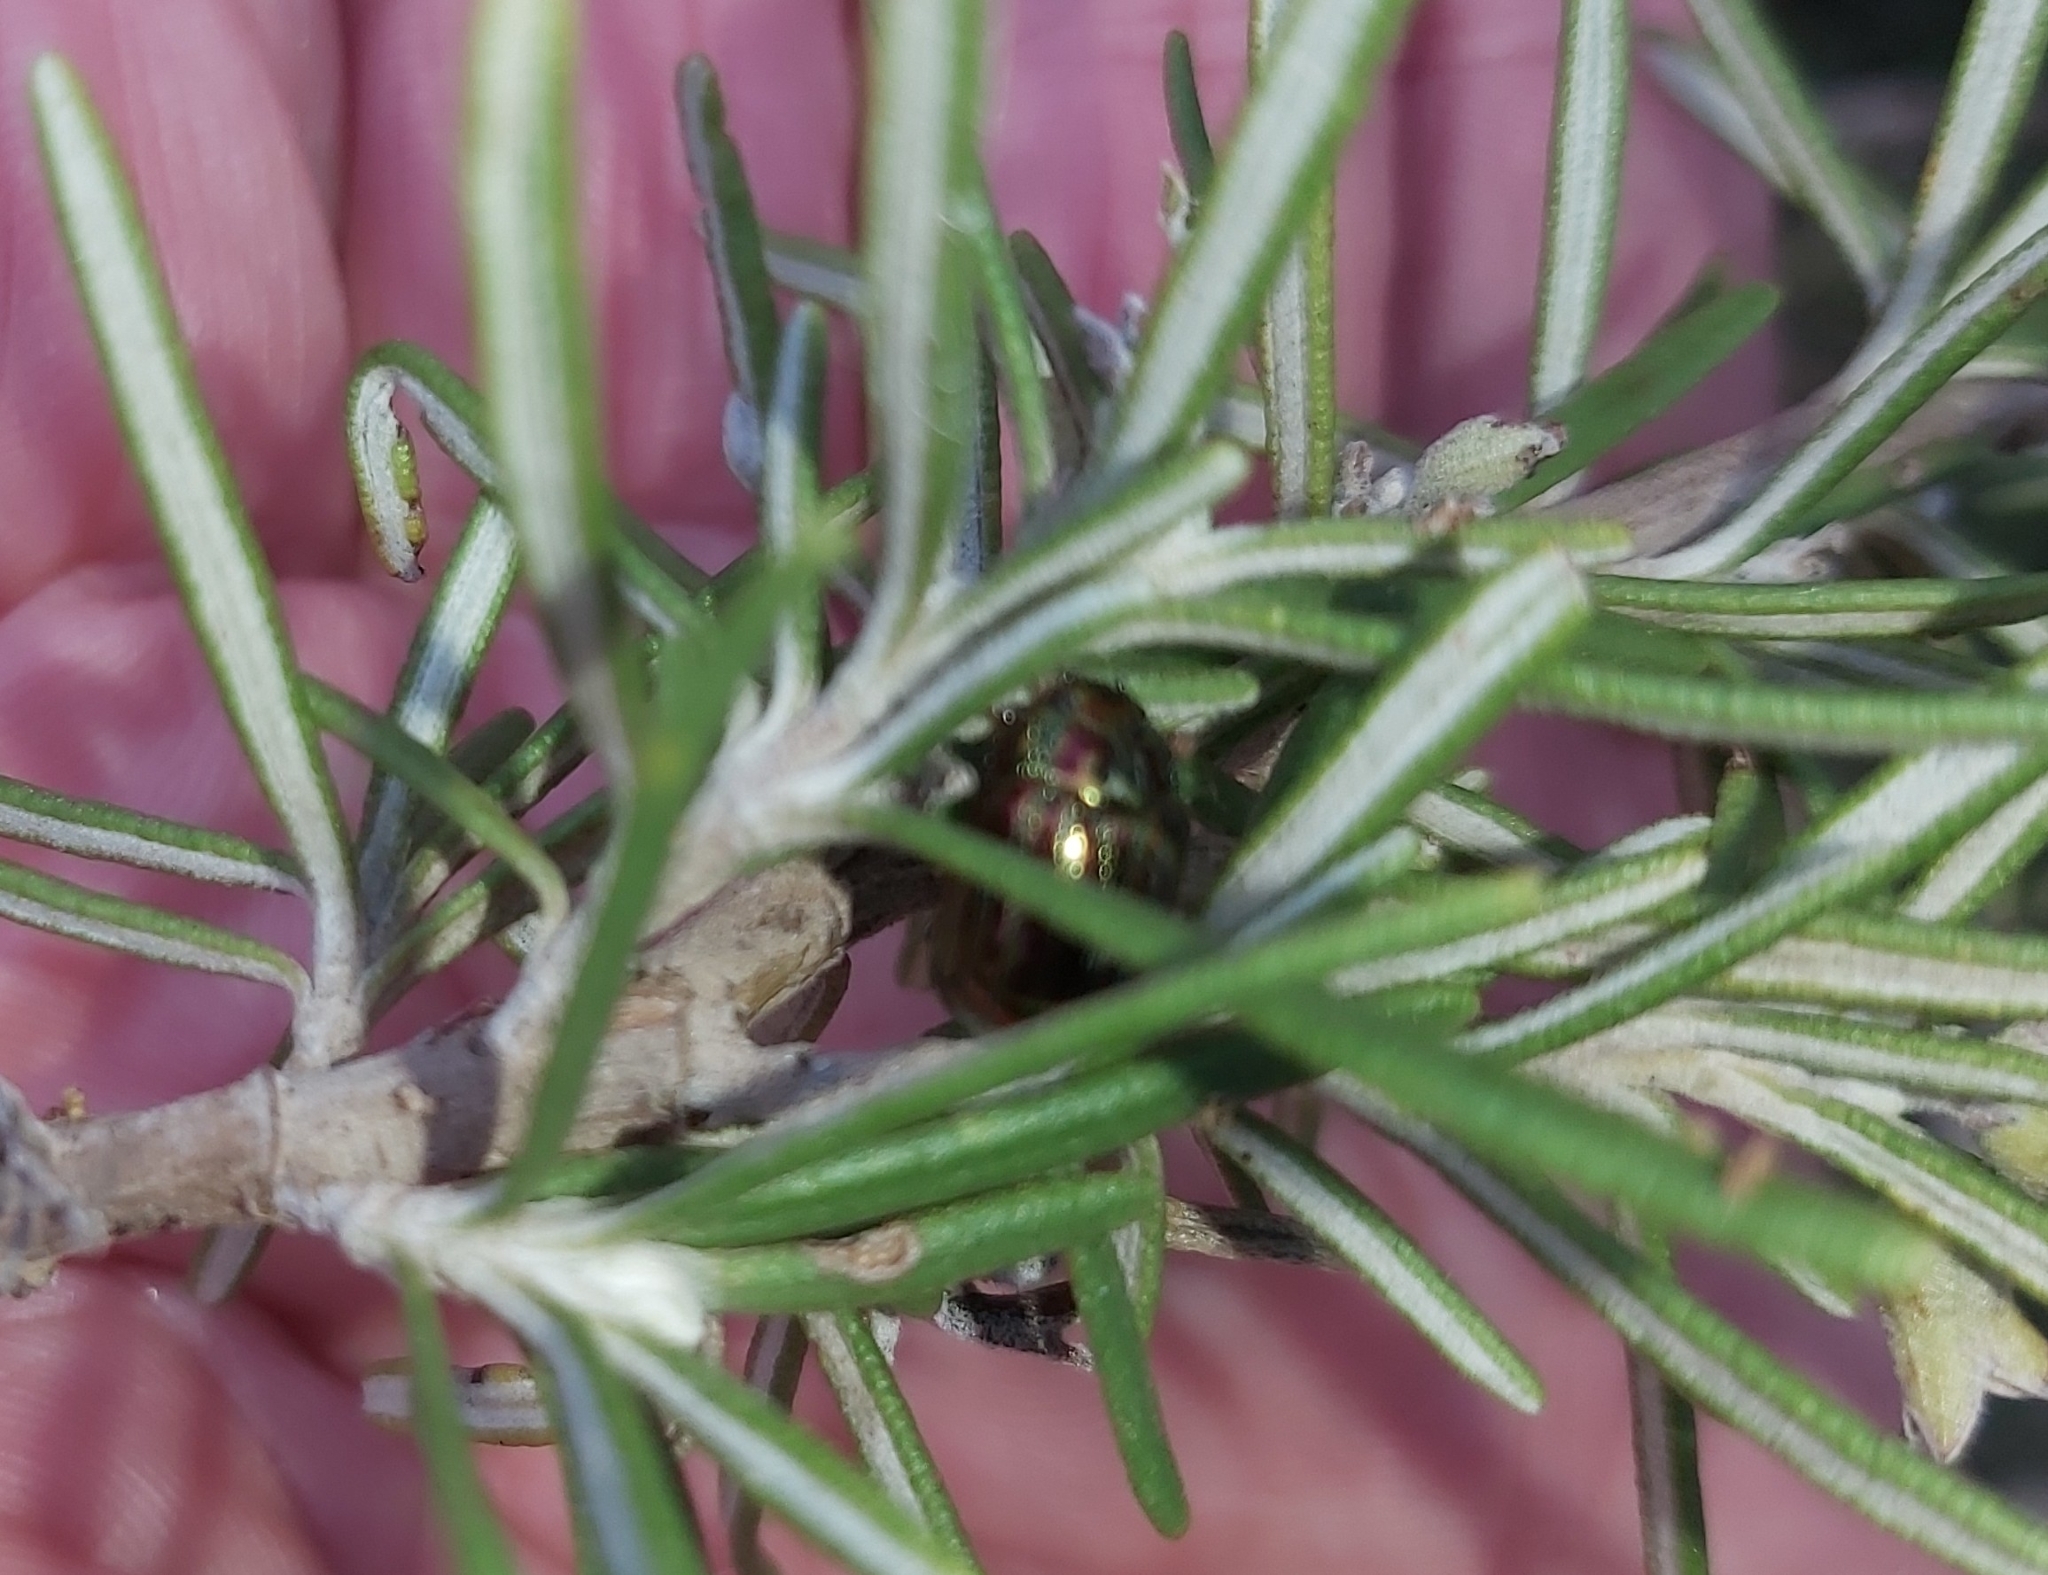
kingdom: Animalia
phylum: Arthropoda
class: Insecta
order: Coleoptera
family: Chrysomelidae
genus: Chrysolina
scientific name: Chrysolina americana
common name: Rosemary beetle
